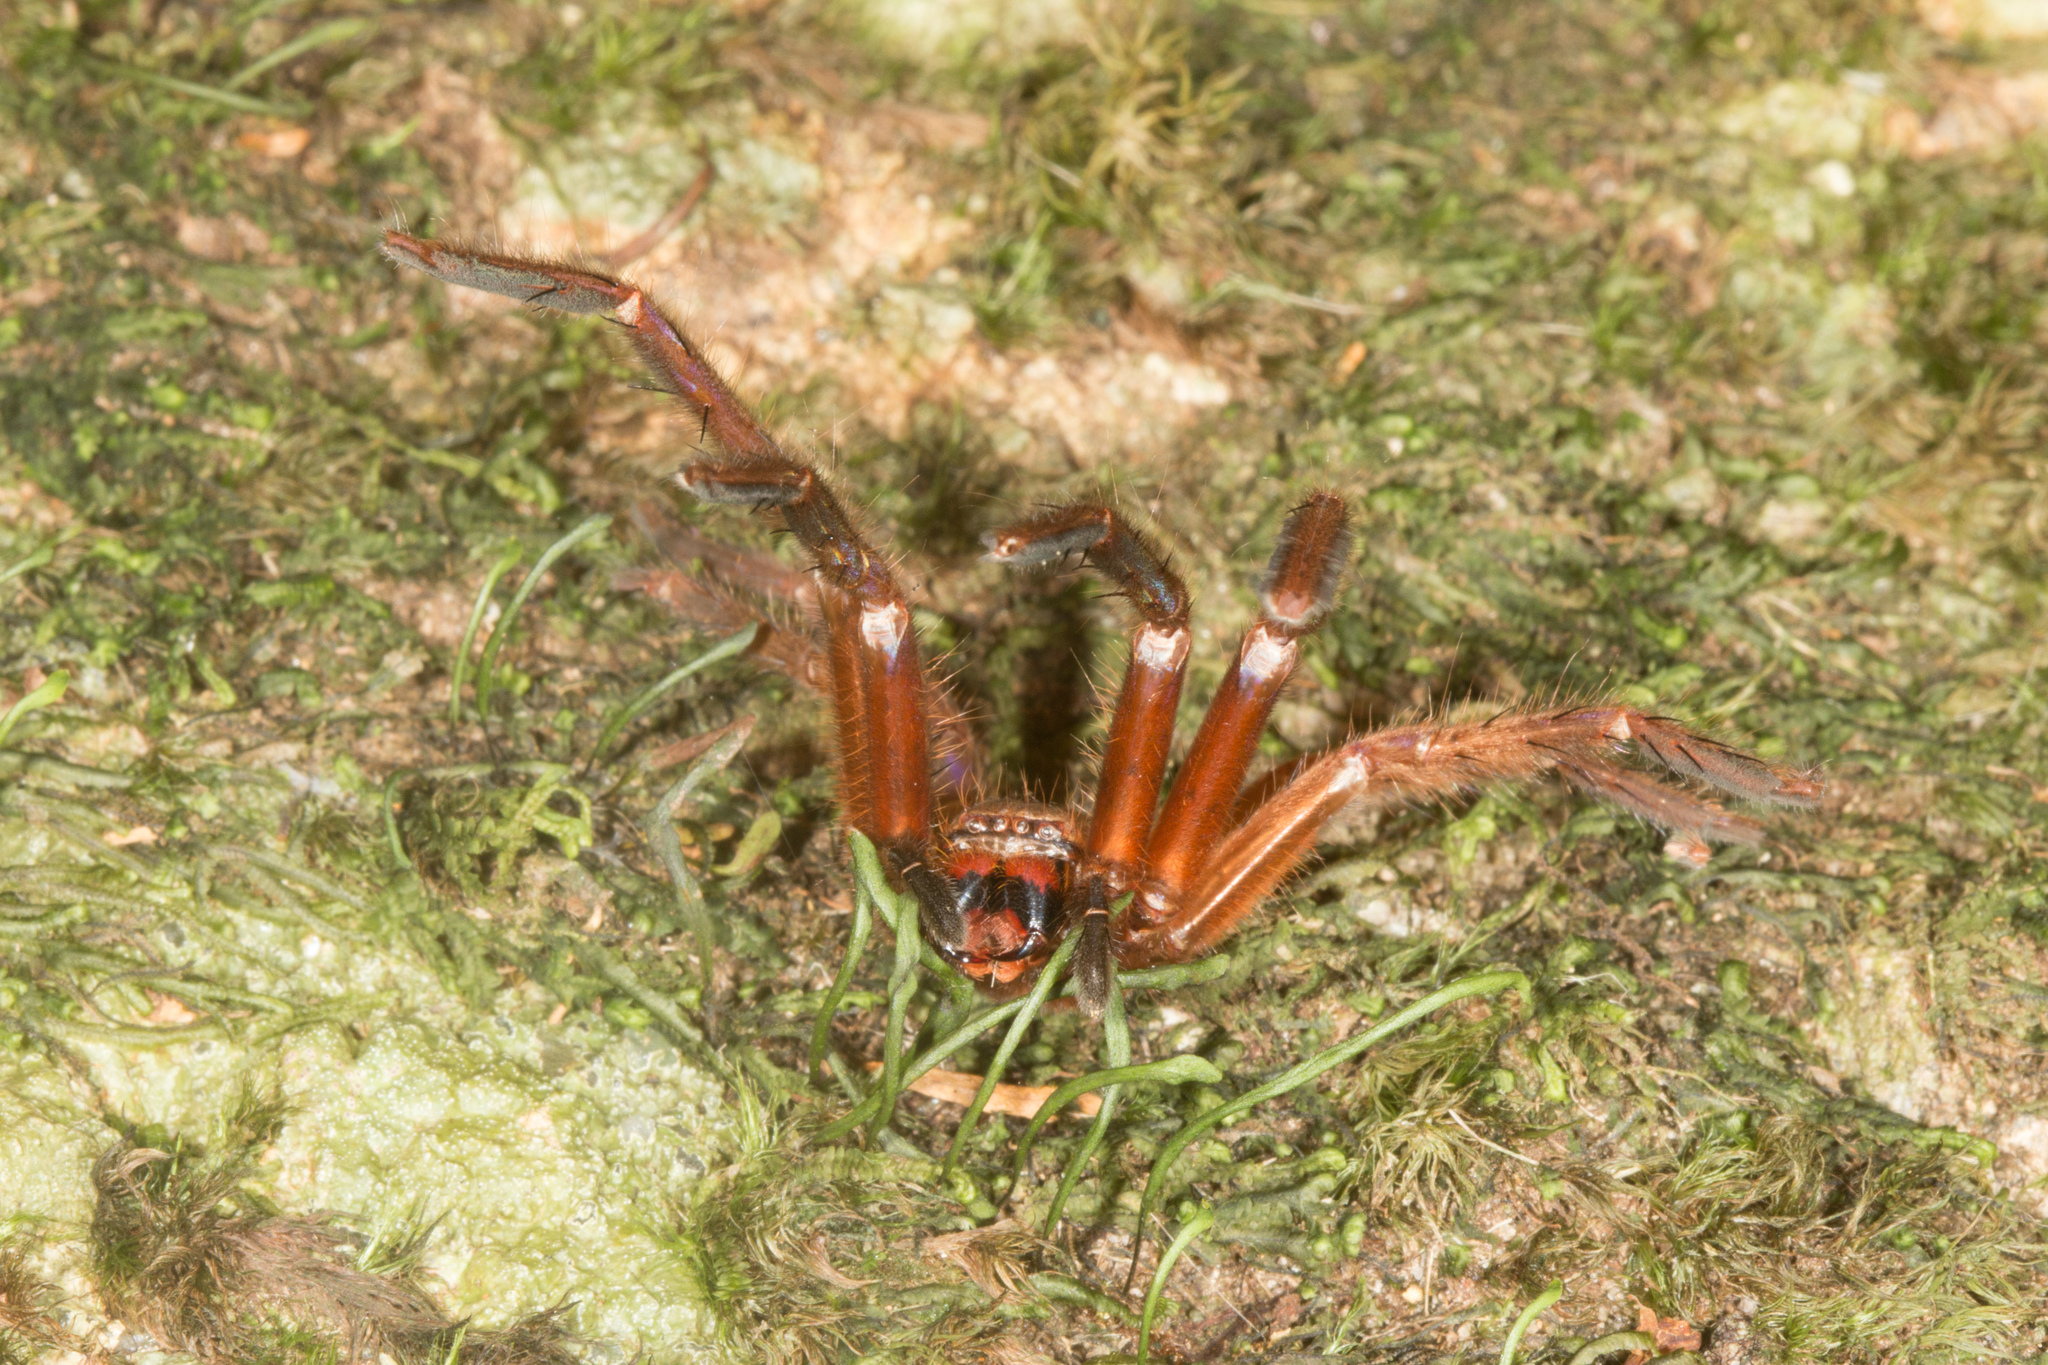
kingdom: Animalia
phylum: Arthropoda
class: Arachnida
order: Araneae
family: Sparassidae
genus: Damastes
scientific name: Damastes validus
